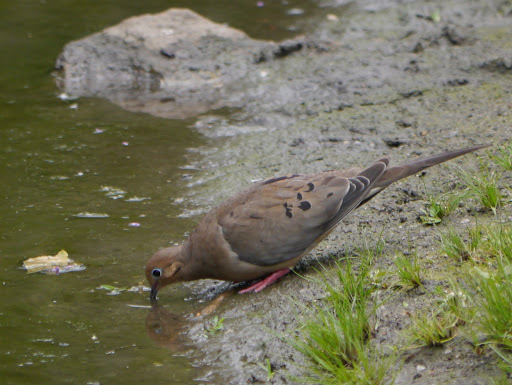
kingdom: Animalia
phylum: Chordata
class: Aves
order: Columbiformes
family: Columbidae
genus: Zenaida
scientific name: Zenaida macroura
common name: Mourning dove
